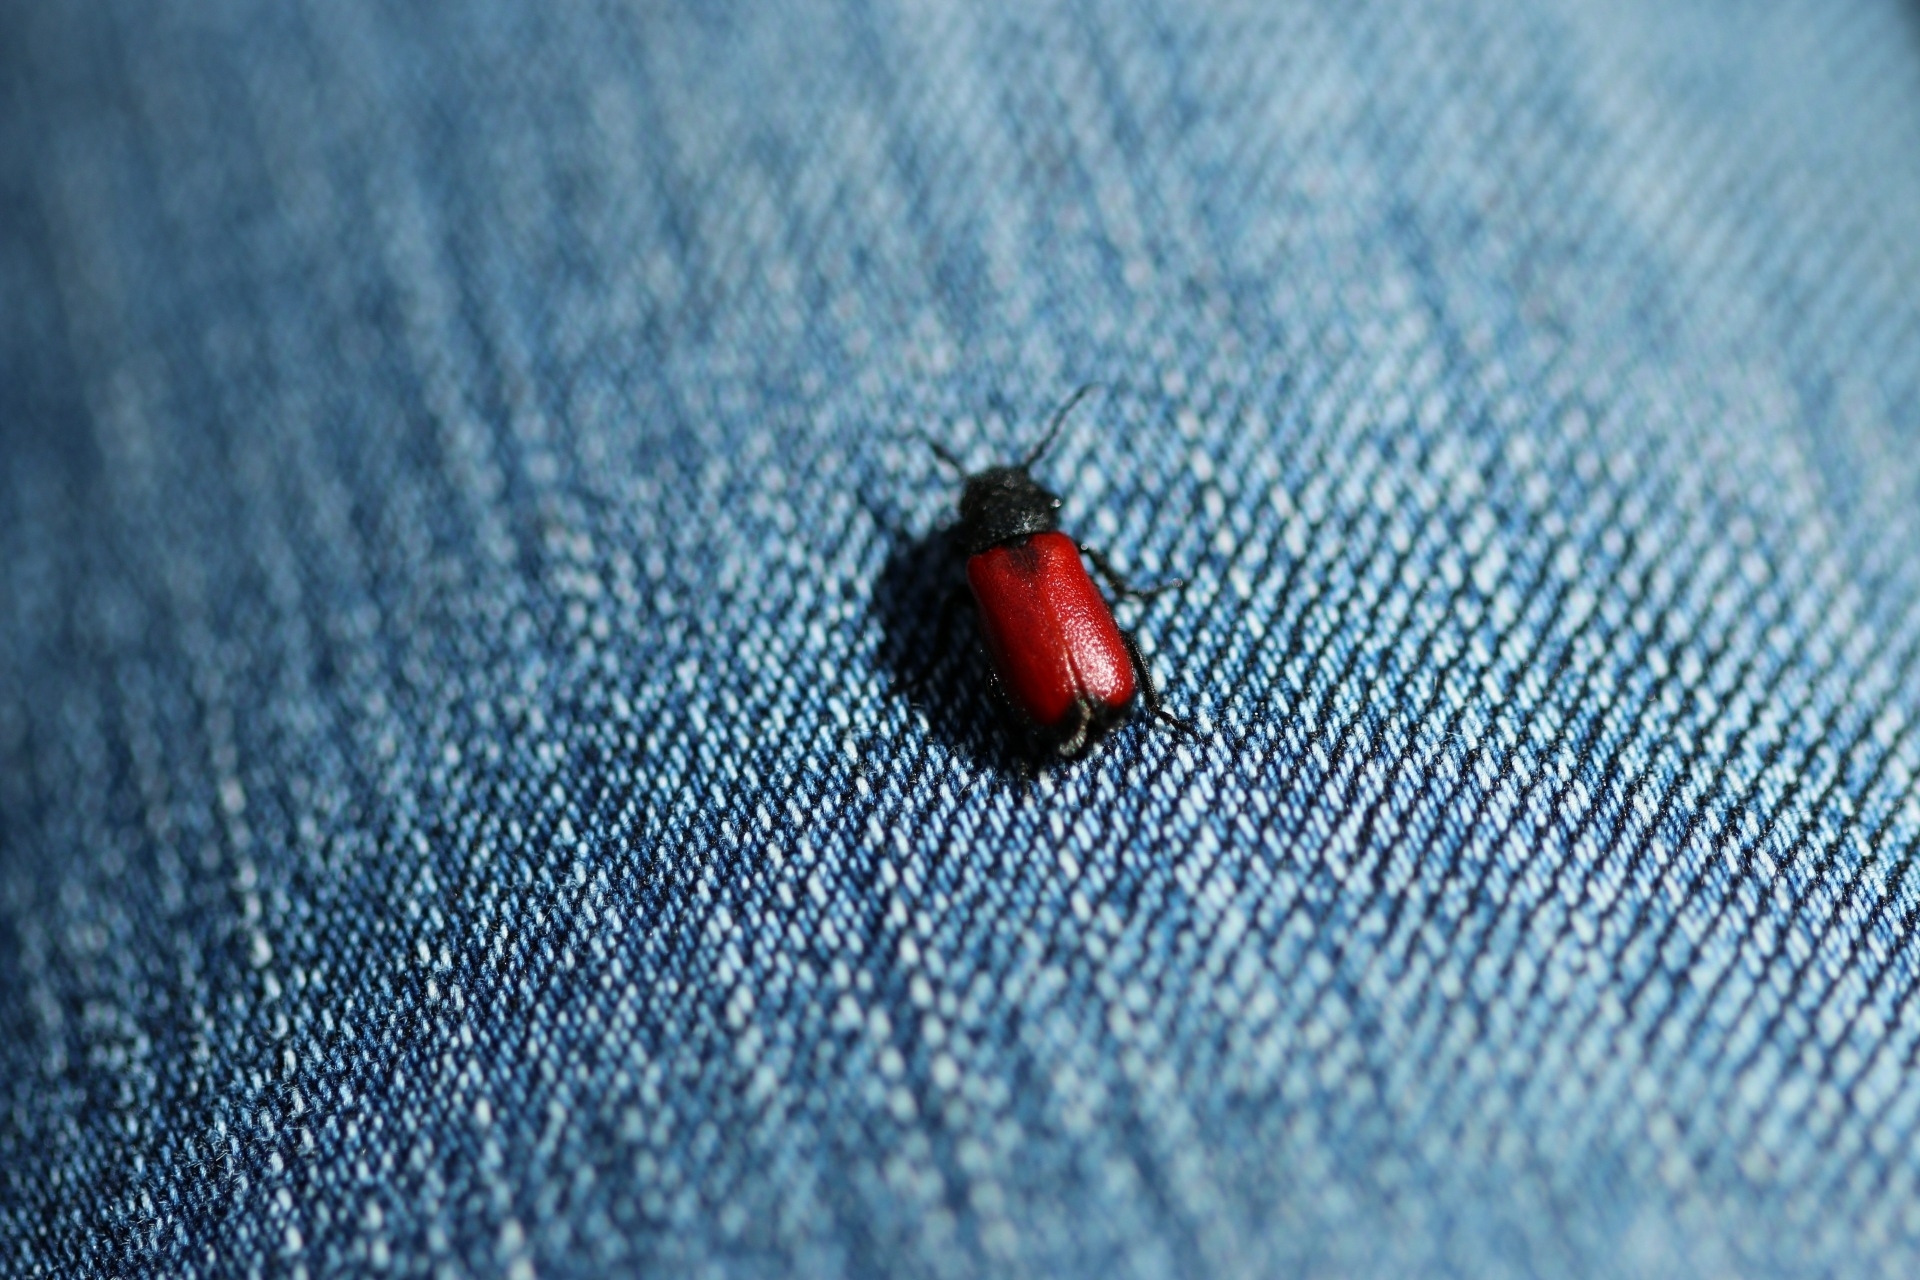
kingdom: Animalia
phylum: Arthropoda
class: Insecta
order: Coleoptera
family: Meloidae
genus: Tricrania
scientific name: Tricrania stansburii
